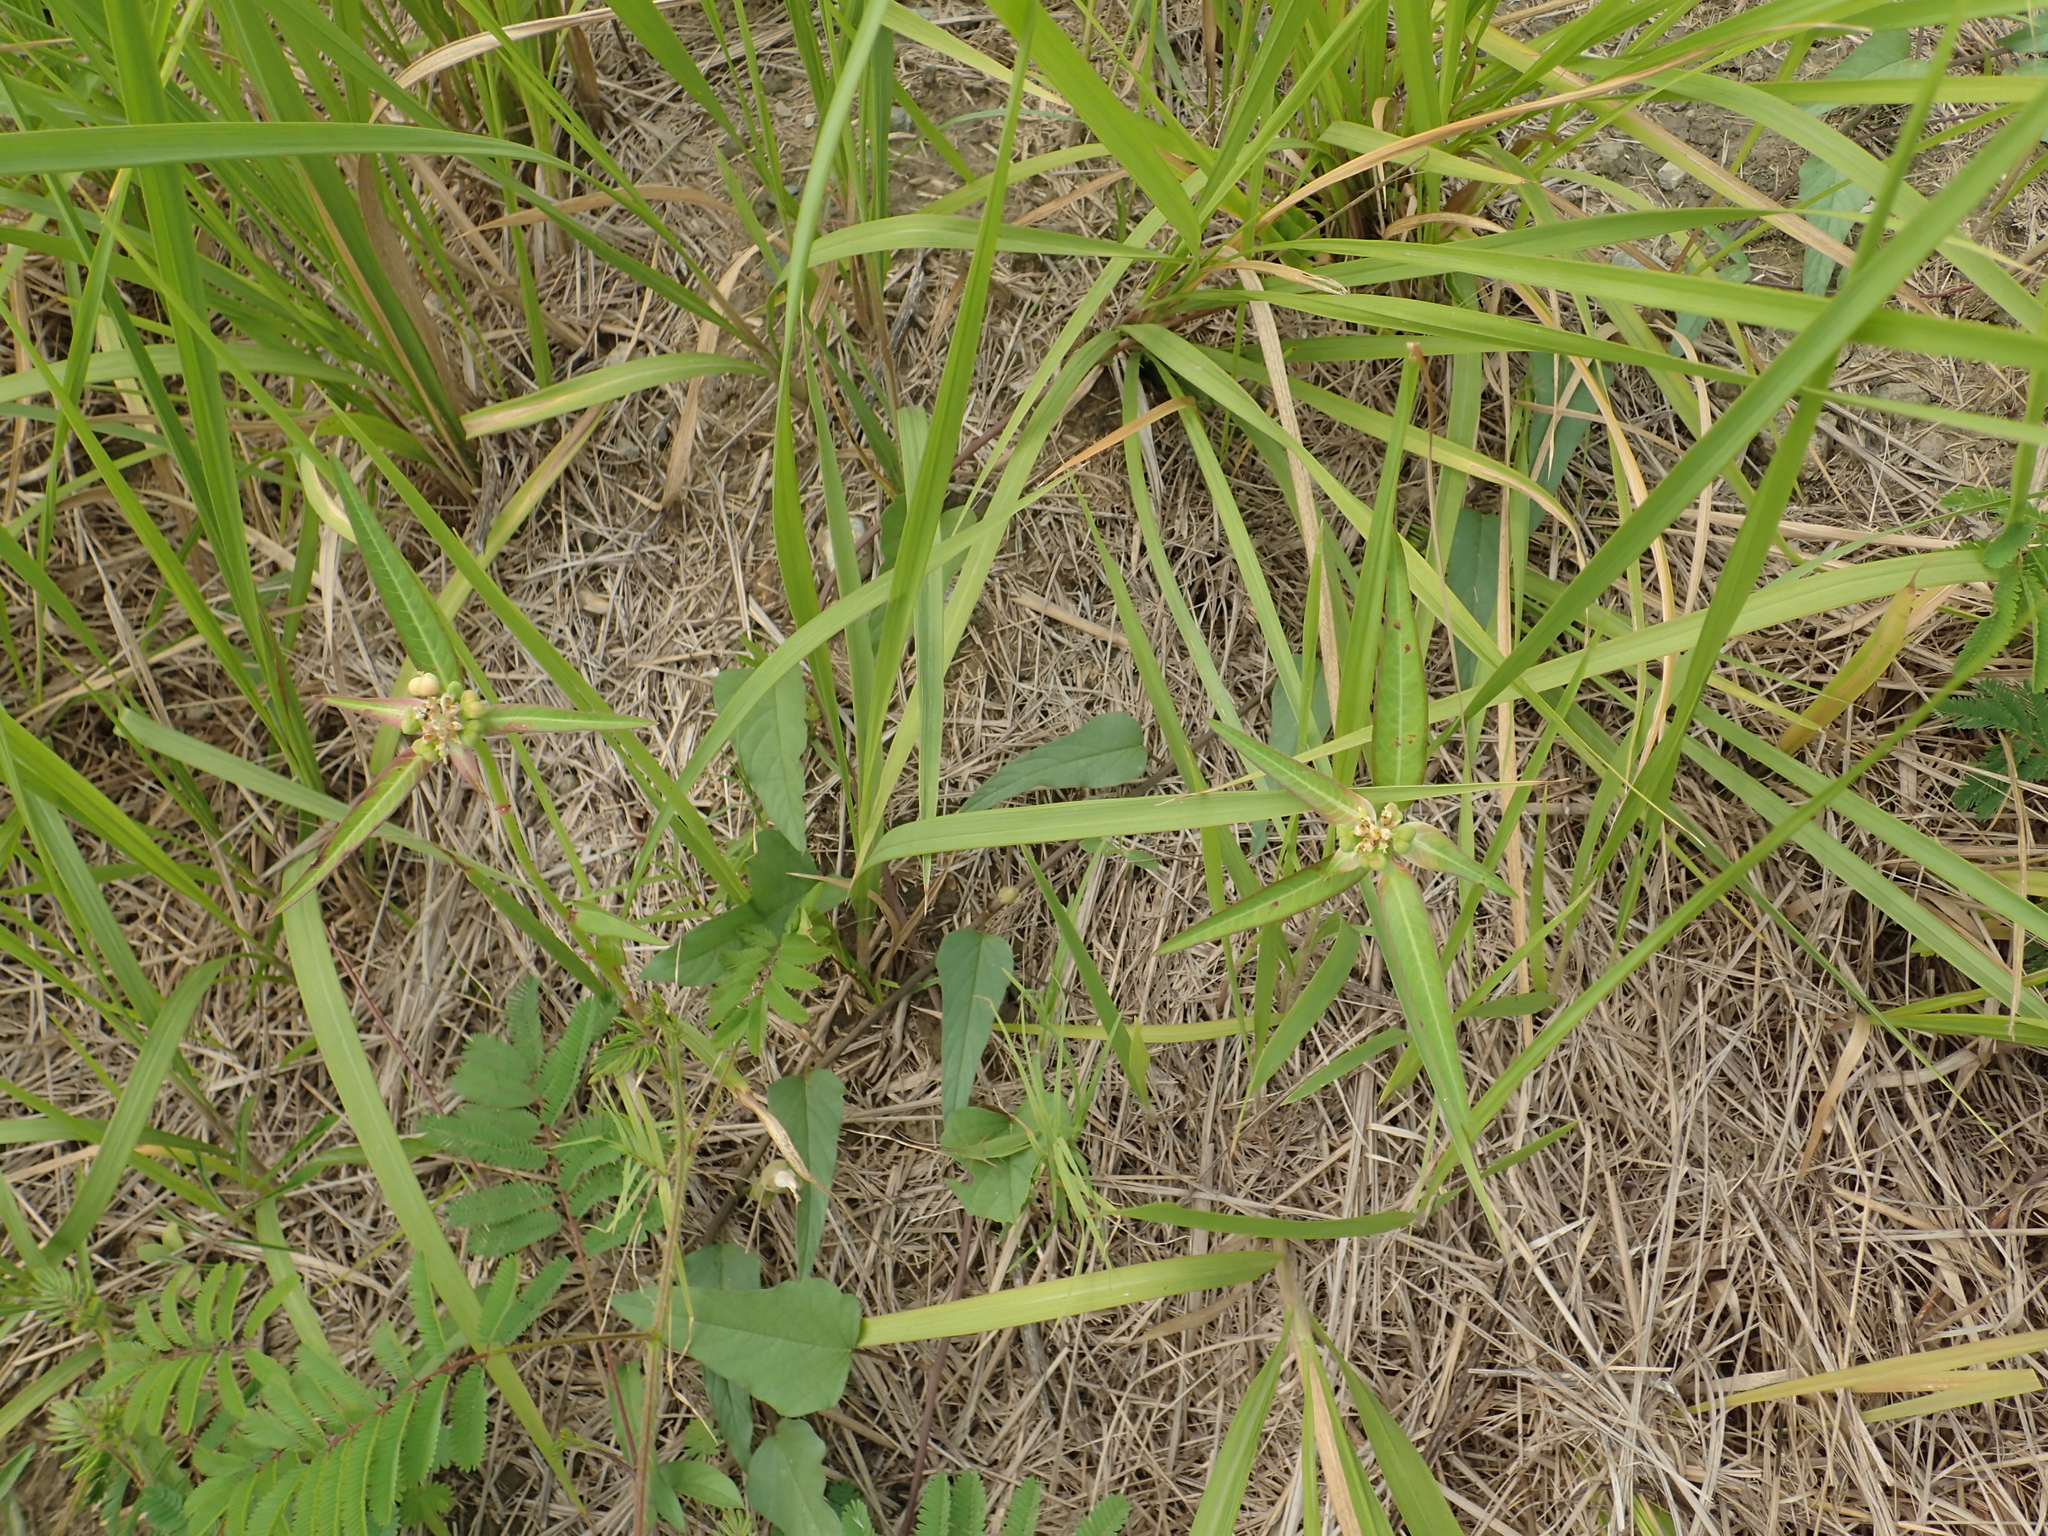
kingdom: Plantae
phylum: Tracheophyta
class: Magnoliopsida
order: Malpighiales
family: Euphorbiaceae
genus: Euphorbia
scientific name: Euphorbia heterophylla
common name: Mexican fireplant
